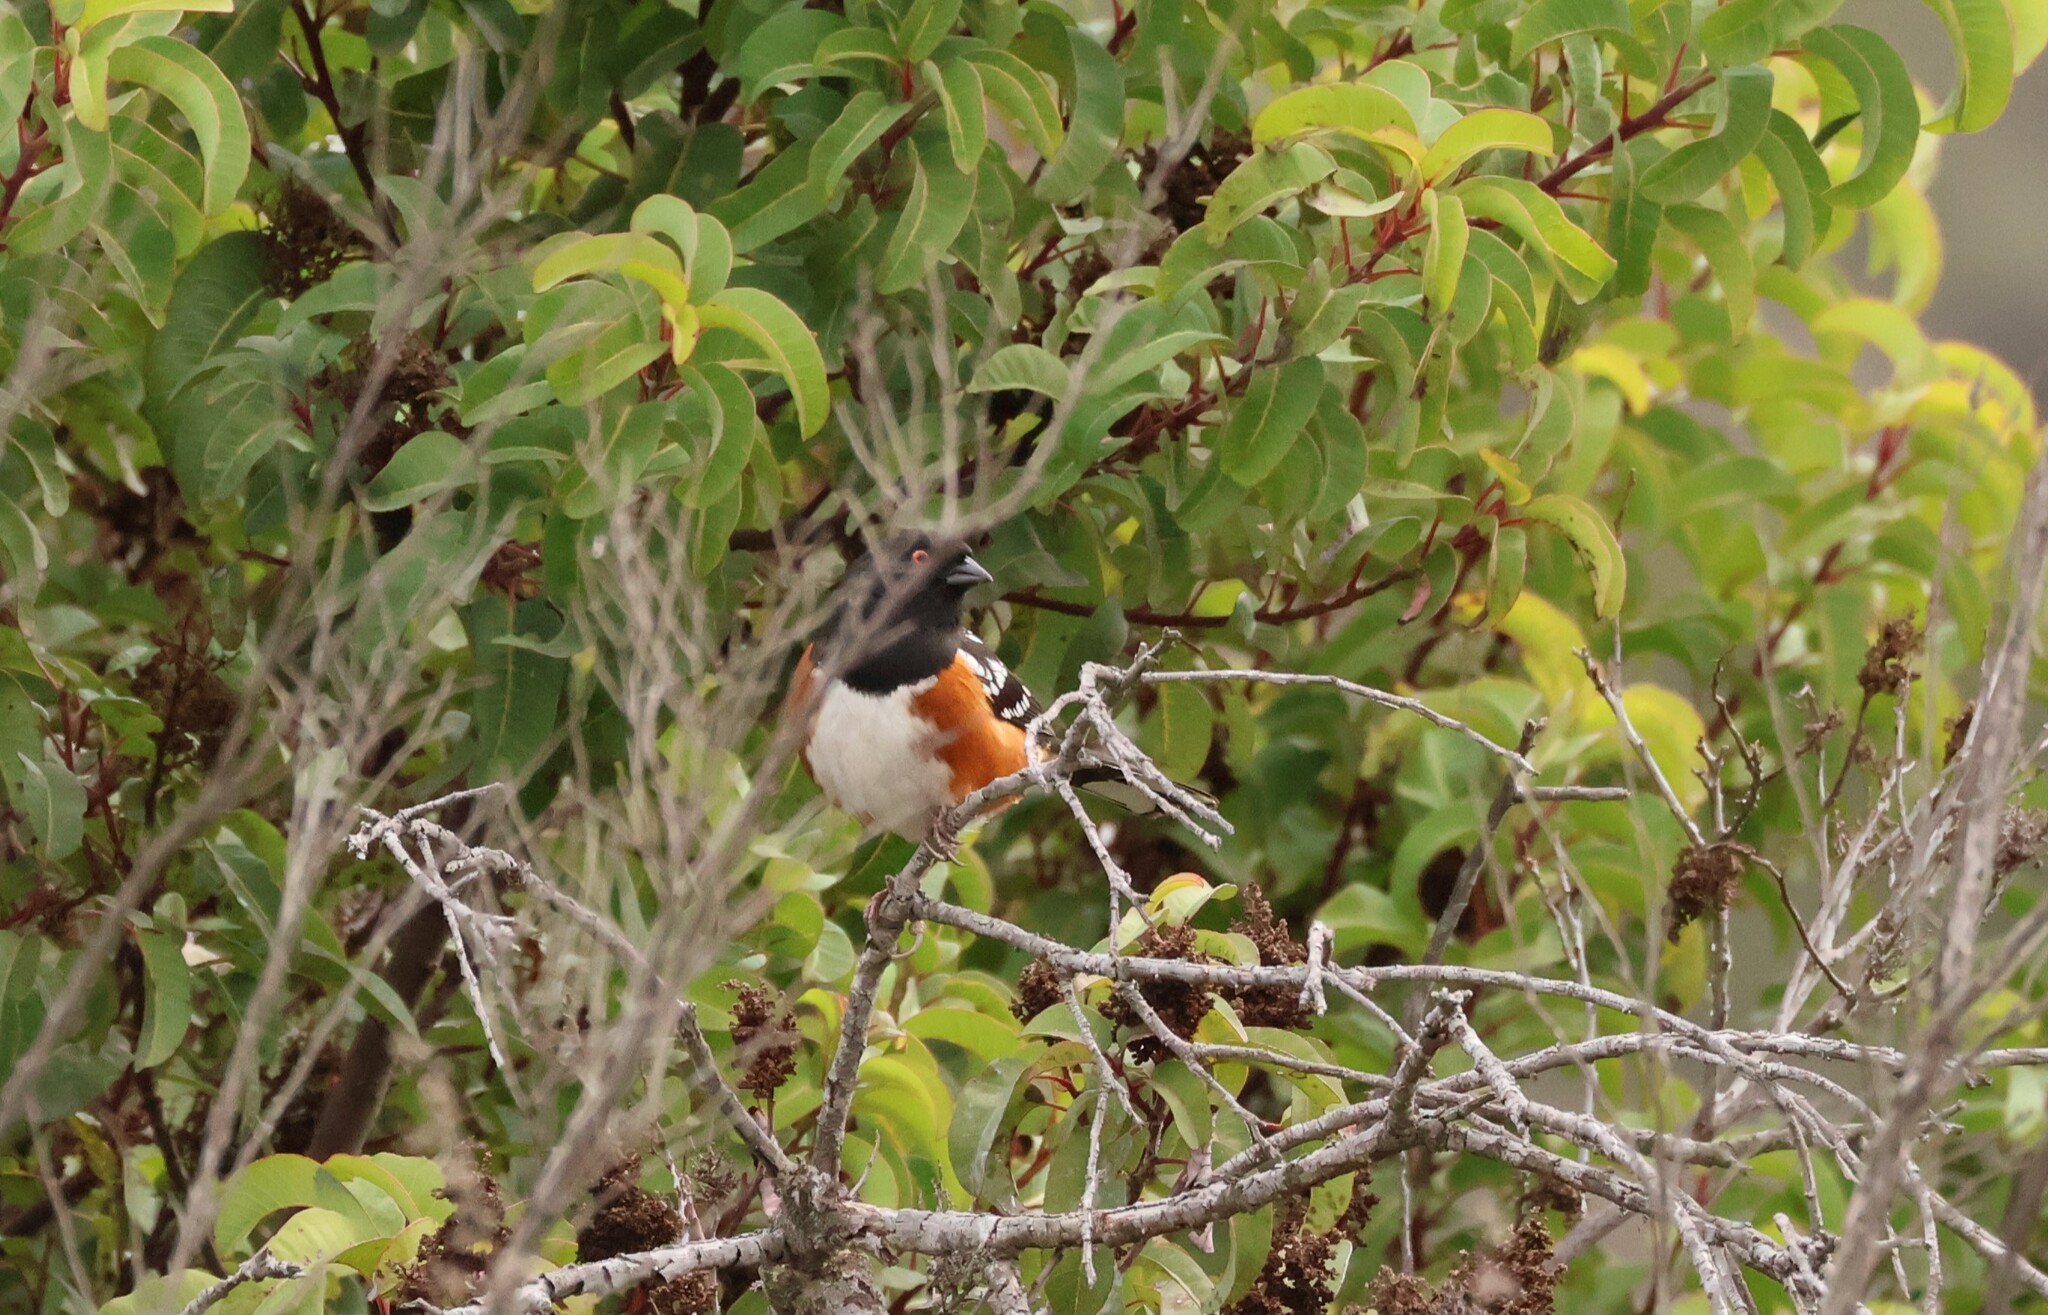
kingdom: Animalia
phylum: Chordata
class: Aves
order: Passeriformes
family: Passerellidae
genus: Pipilo
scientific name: Pipilo maculatus
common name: Spotted towhee
